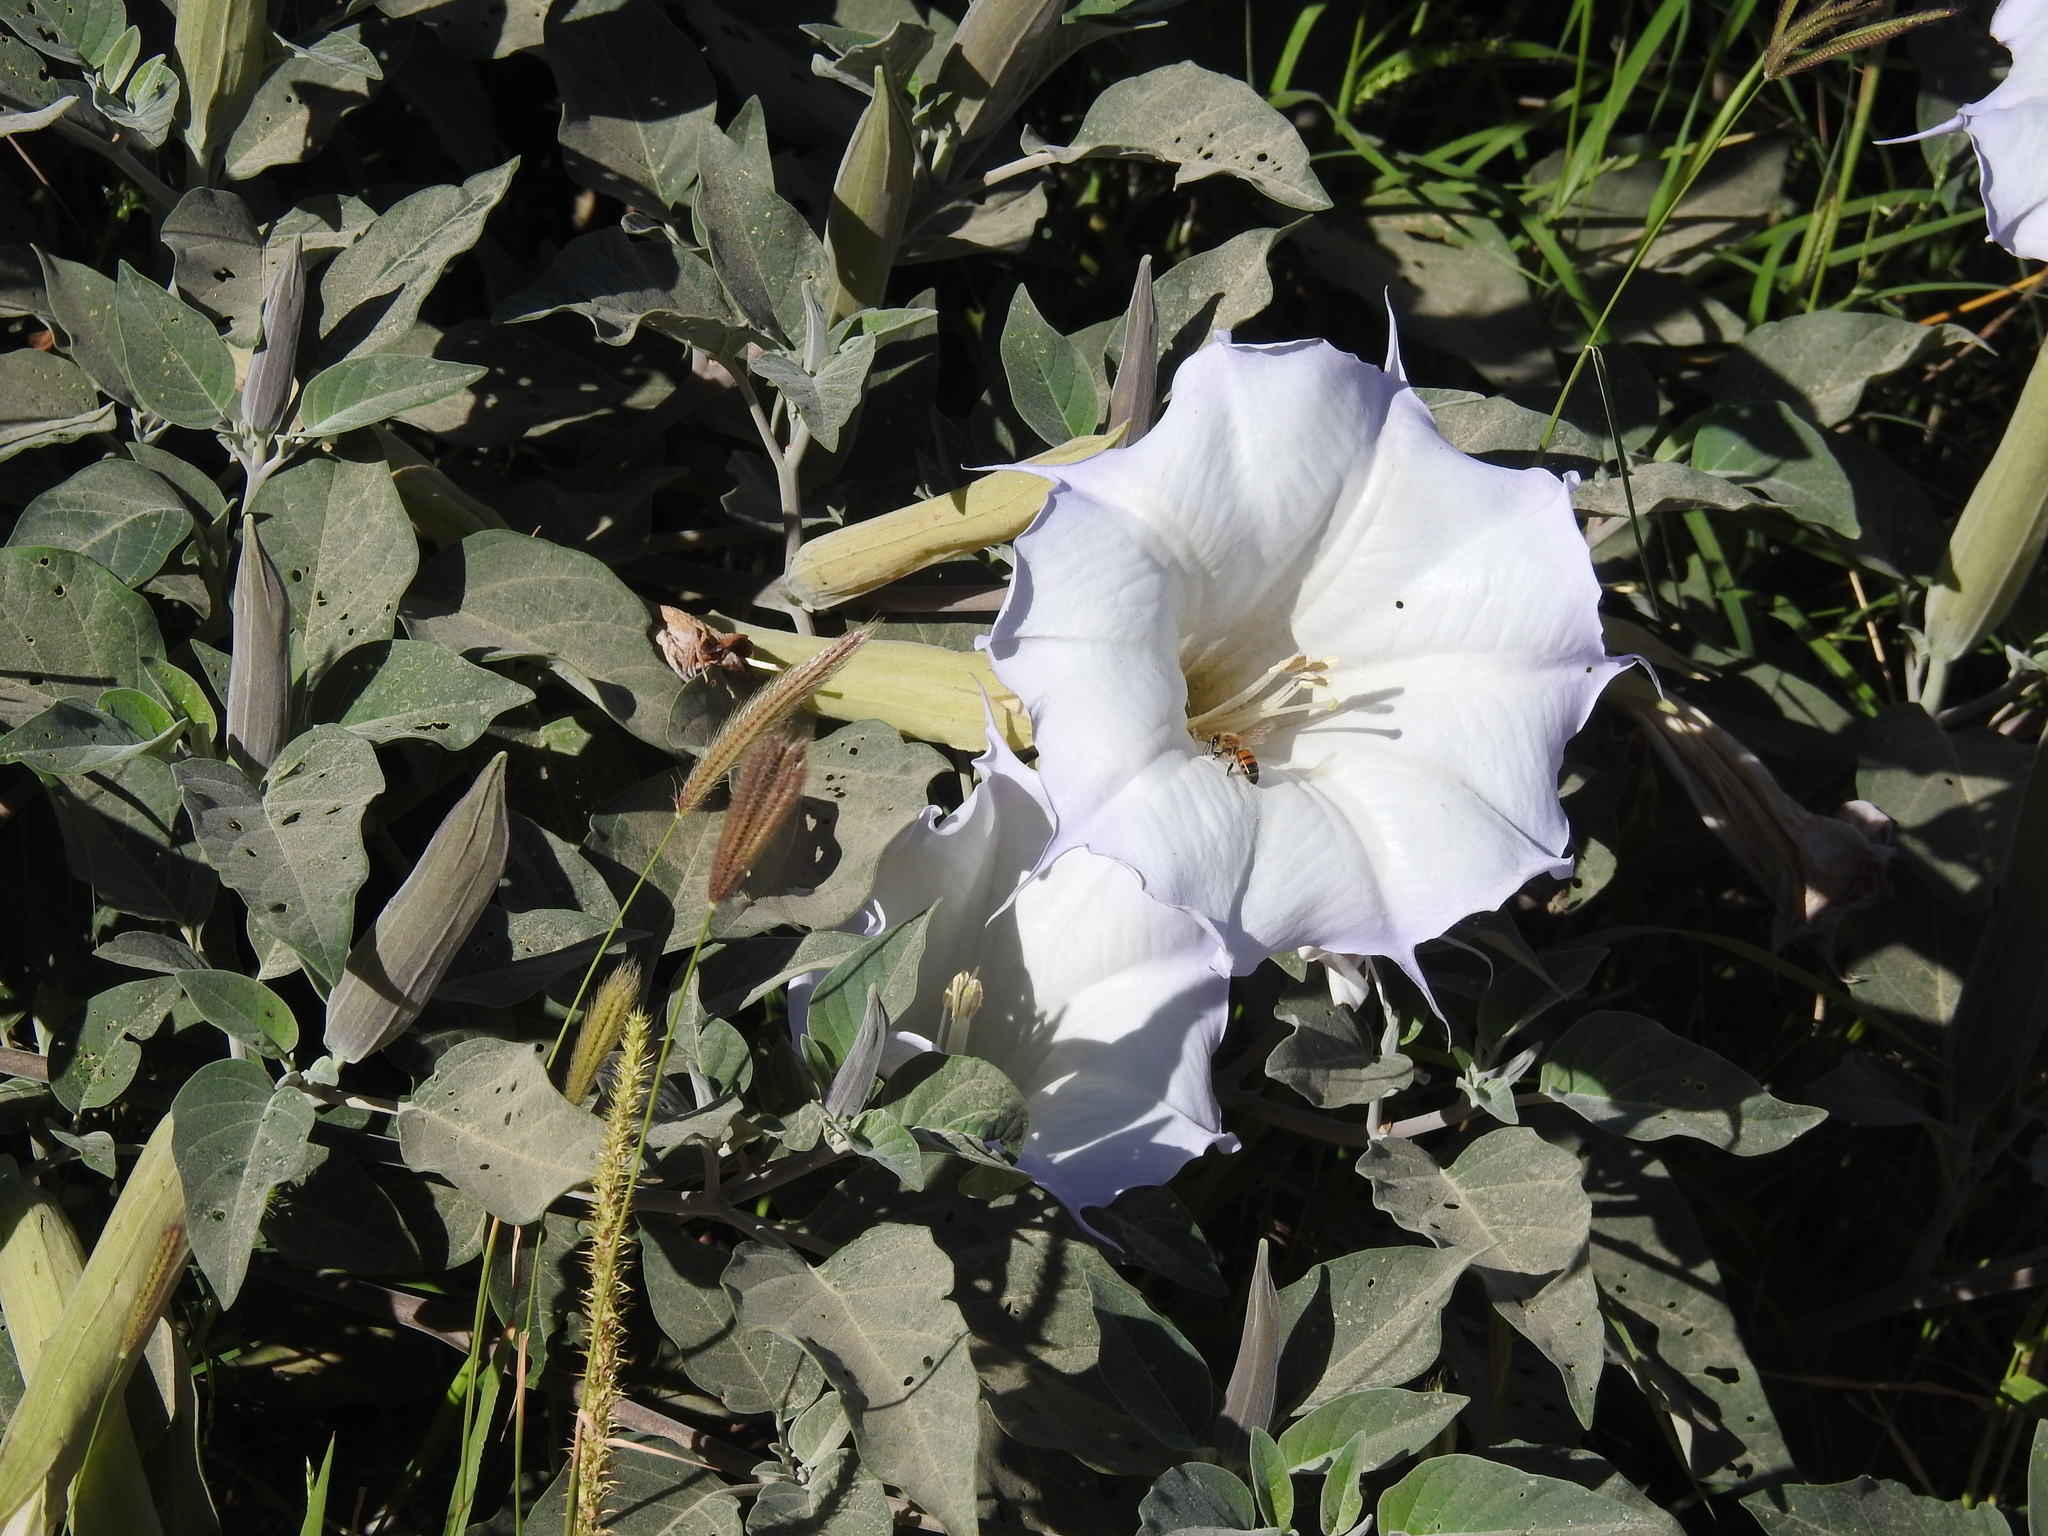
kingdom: Plantae
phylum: Tracheophyta
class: Magnoliopsida
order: Solanales
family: Solanaceae
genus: Datura
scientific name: Datura wrightii
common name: Sacred thorn-apple
